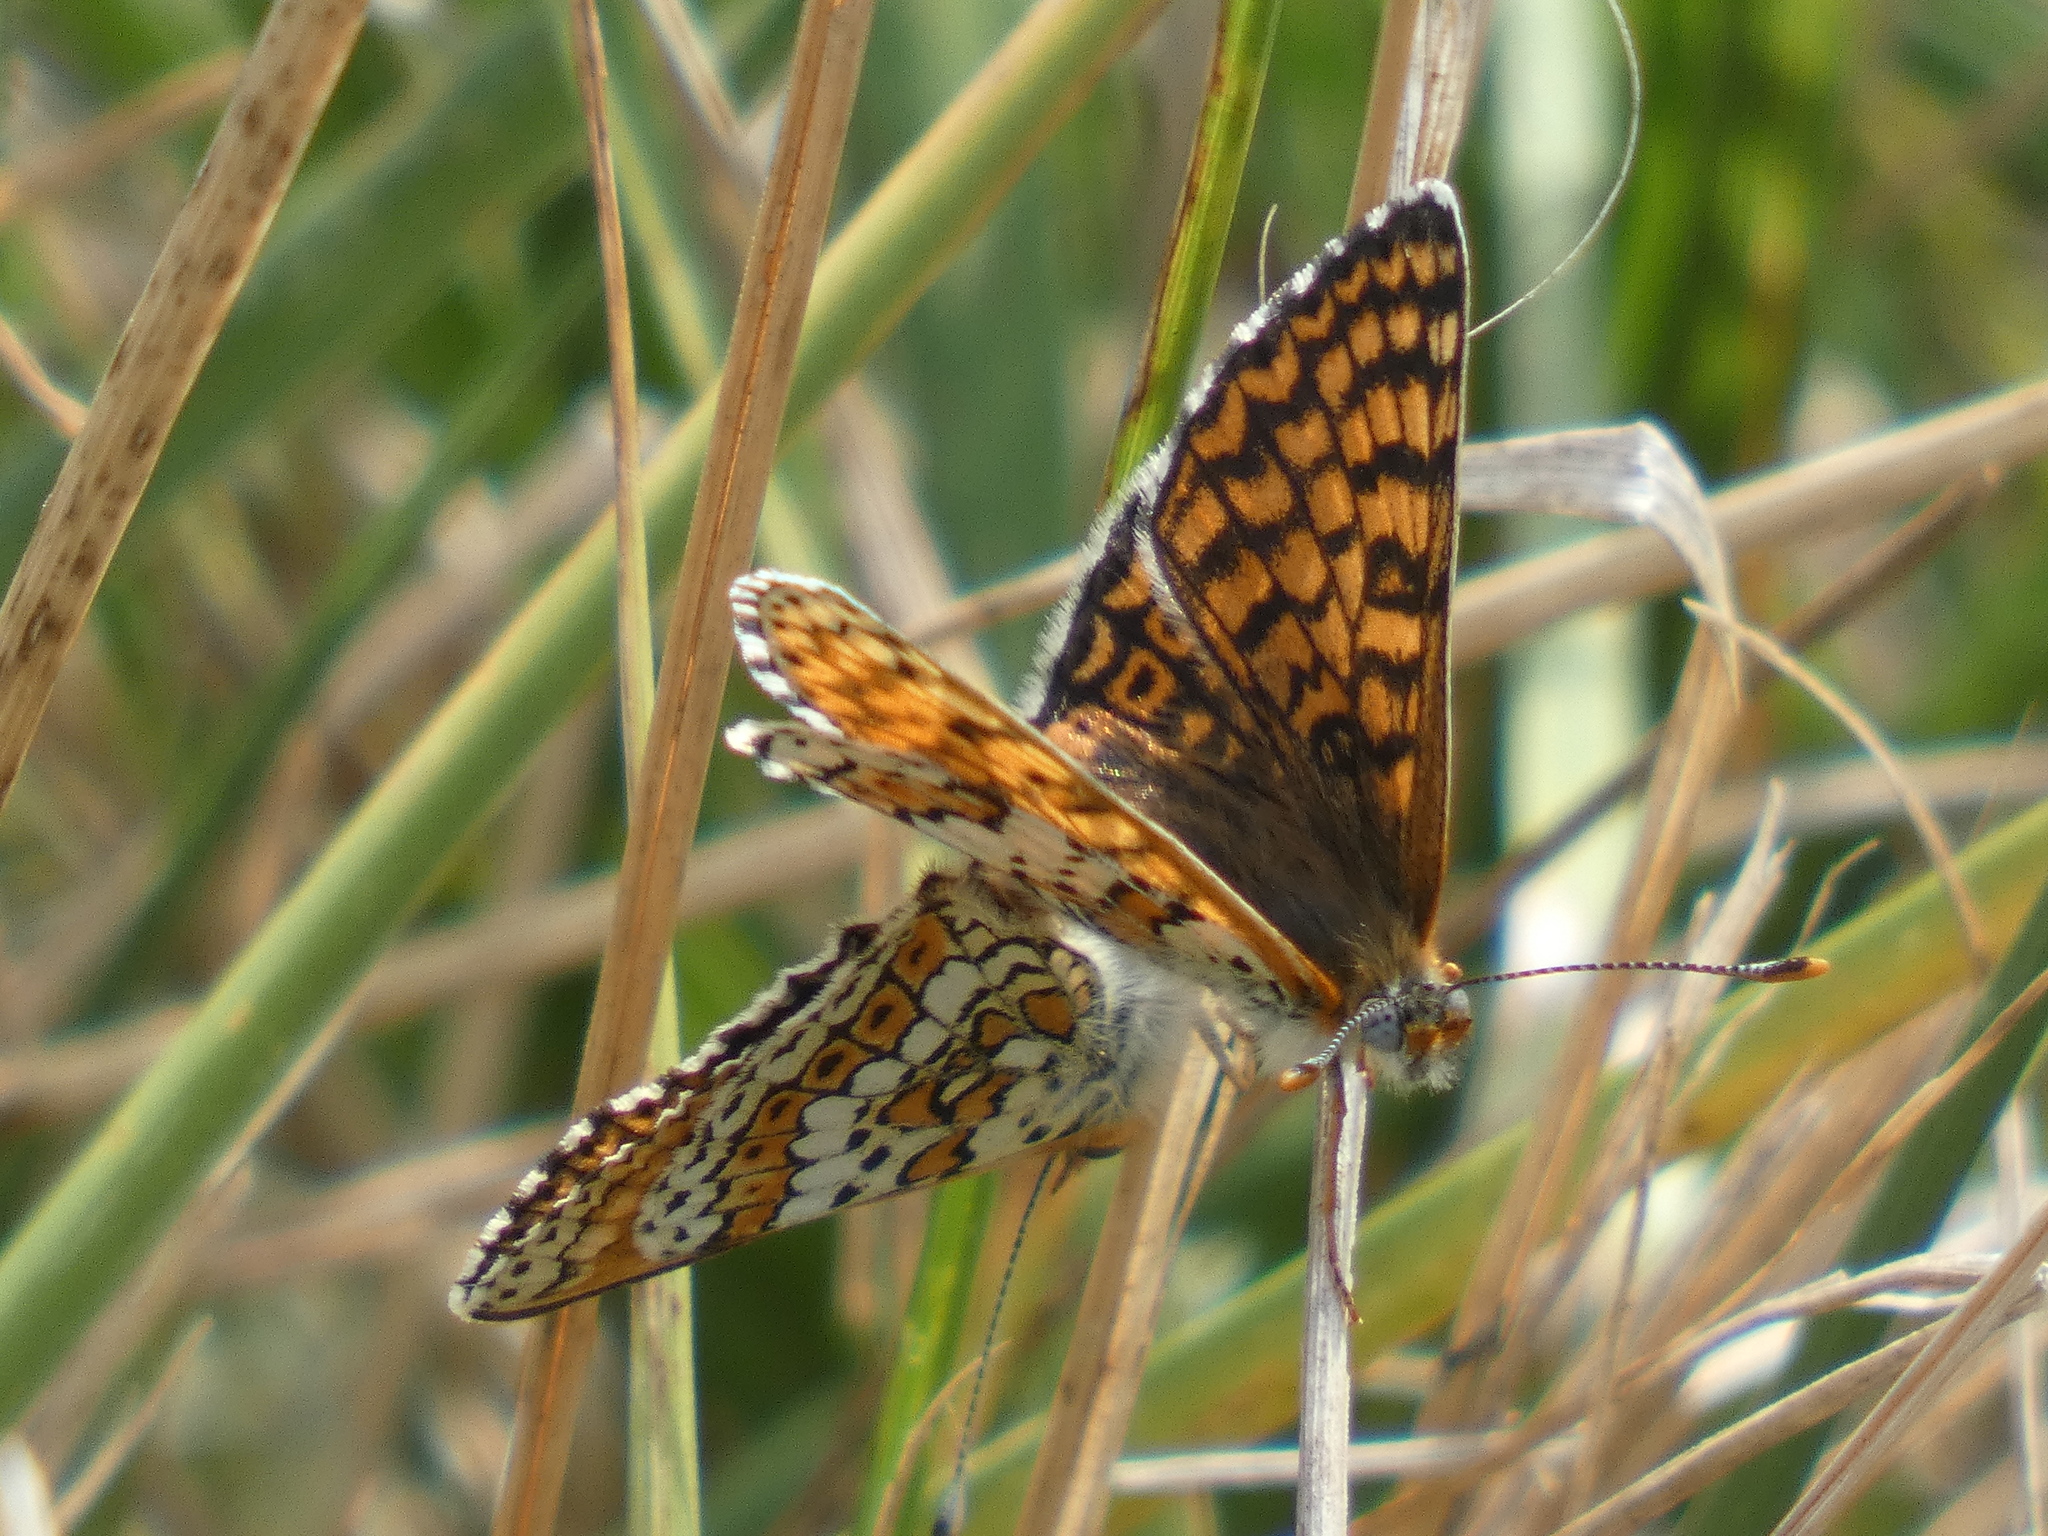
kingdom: Animalia
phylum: Arthropoda
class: Insecta
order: Lepidoptera
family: Nymphalidae
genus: Melitaea
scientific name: Melitaea cinxia
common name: Glanville fritillary
